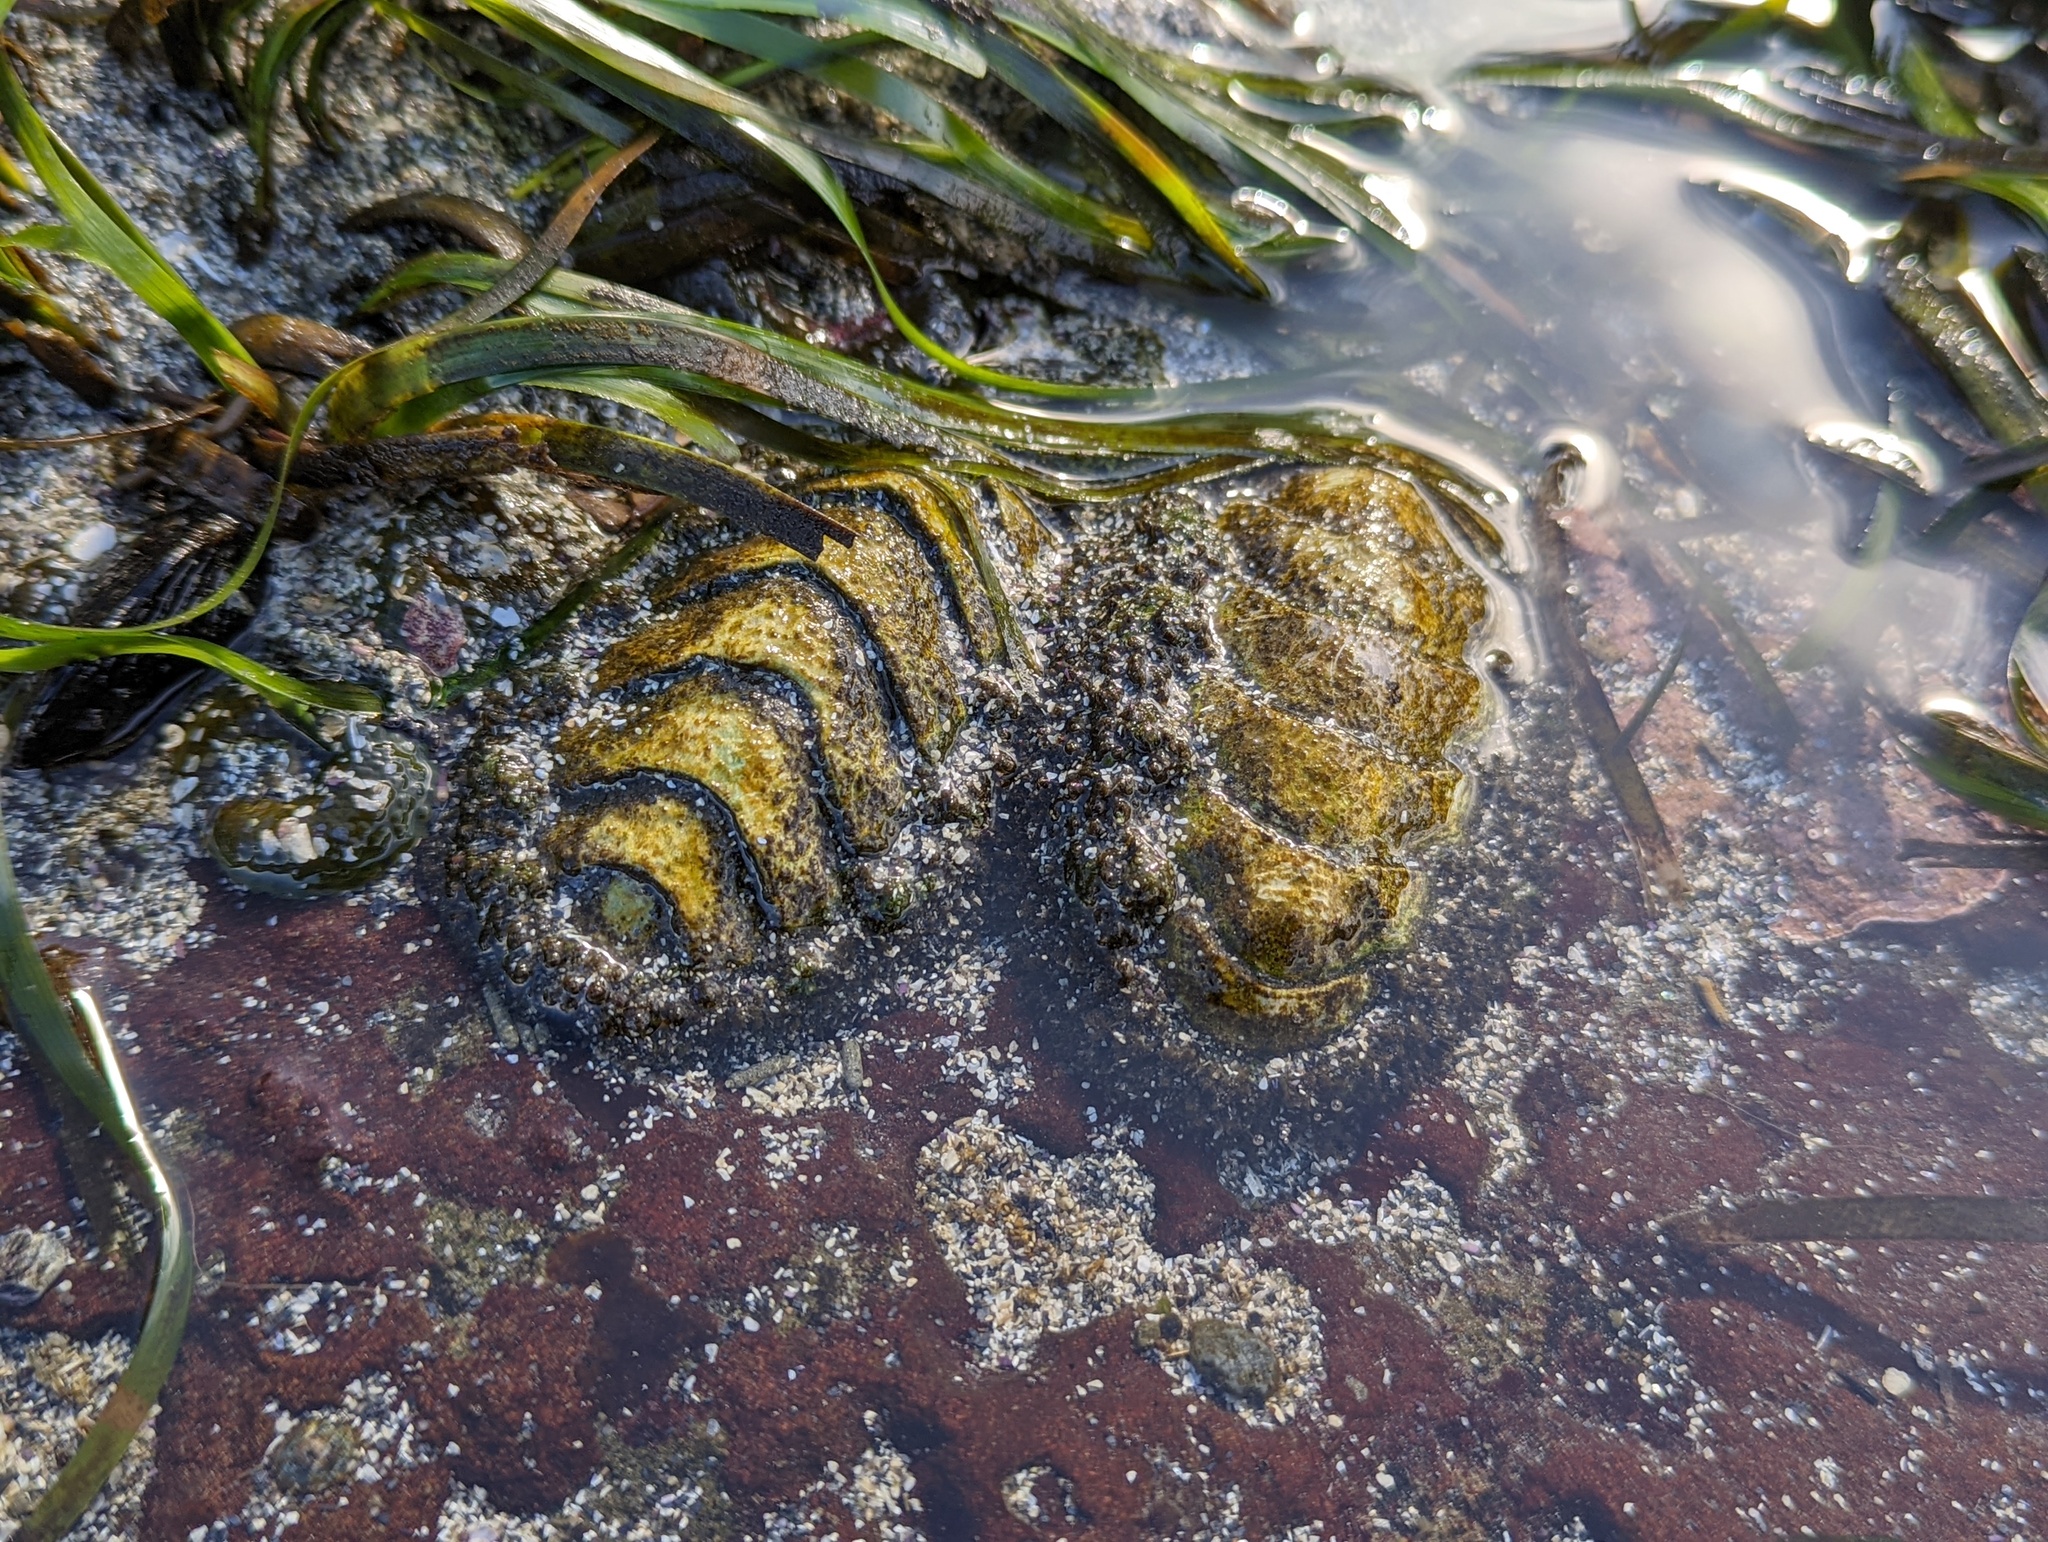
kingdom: Animalia
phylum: Mollusca
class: Polyplacophora
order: Chitonida
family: Mopaliidae
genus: Mopalia
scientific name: Mopalia muscosa
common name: Mossy chiton
